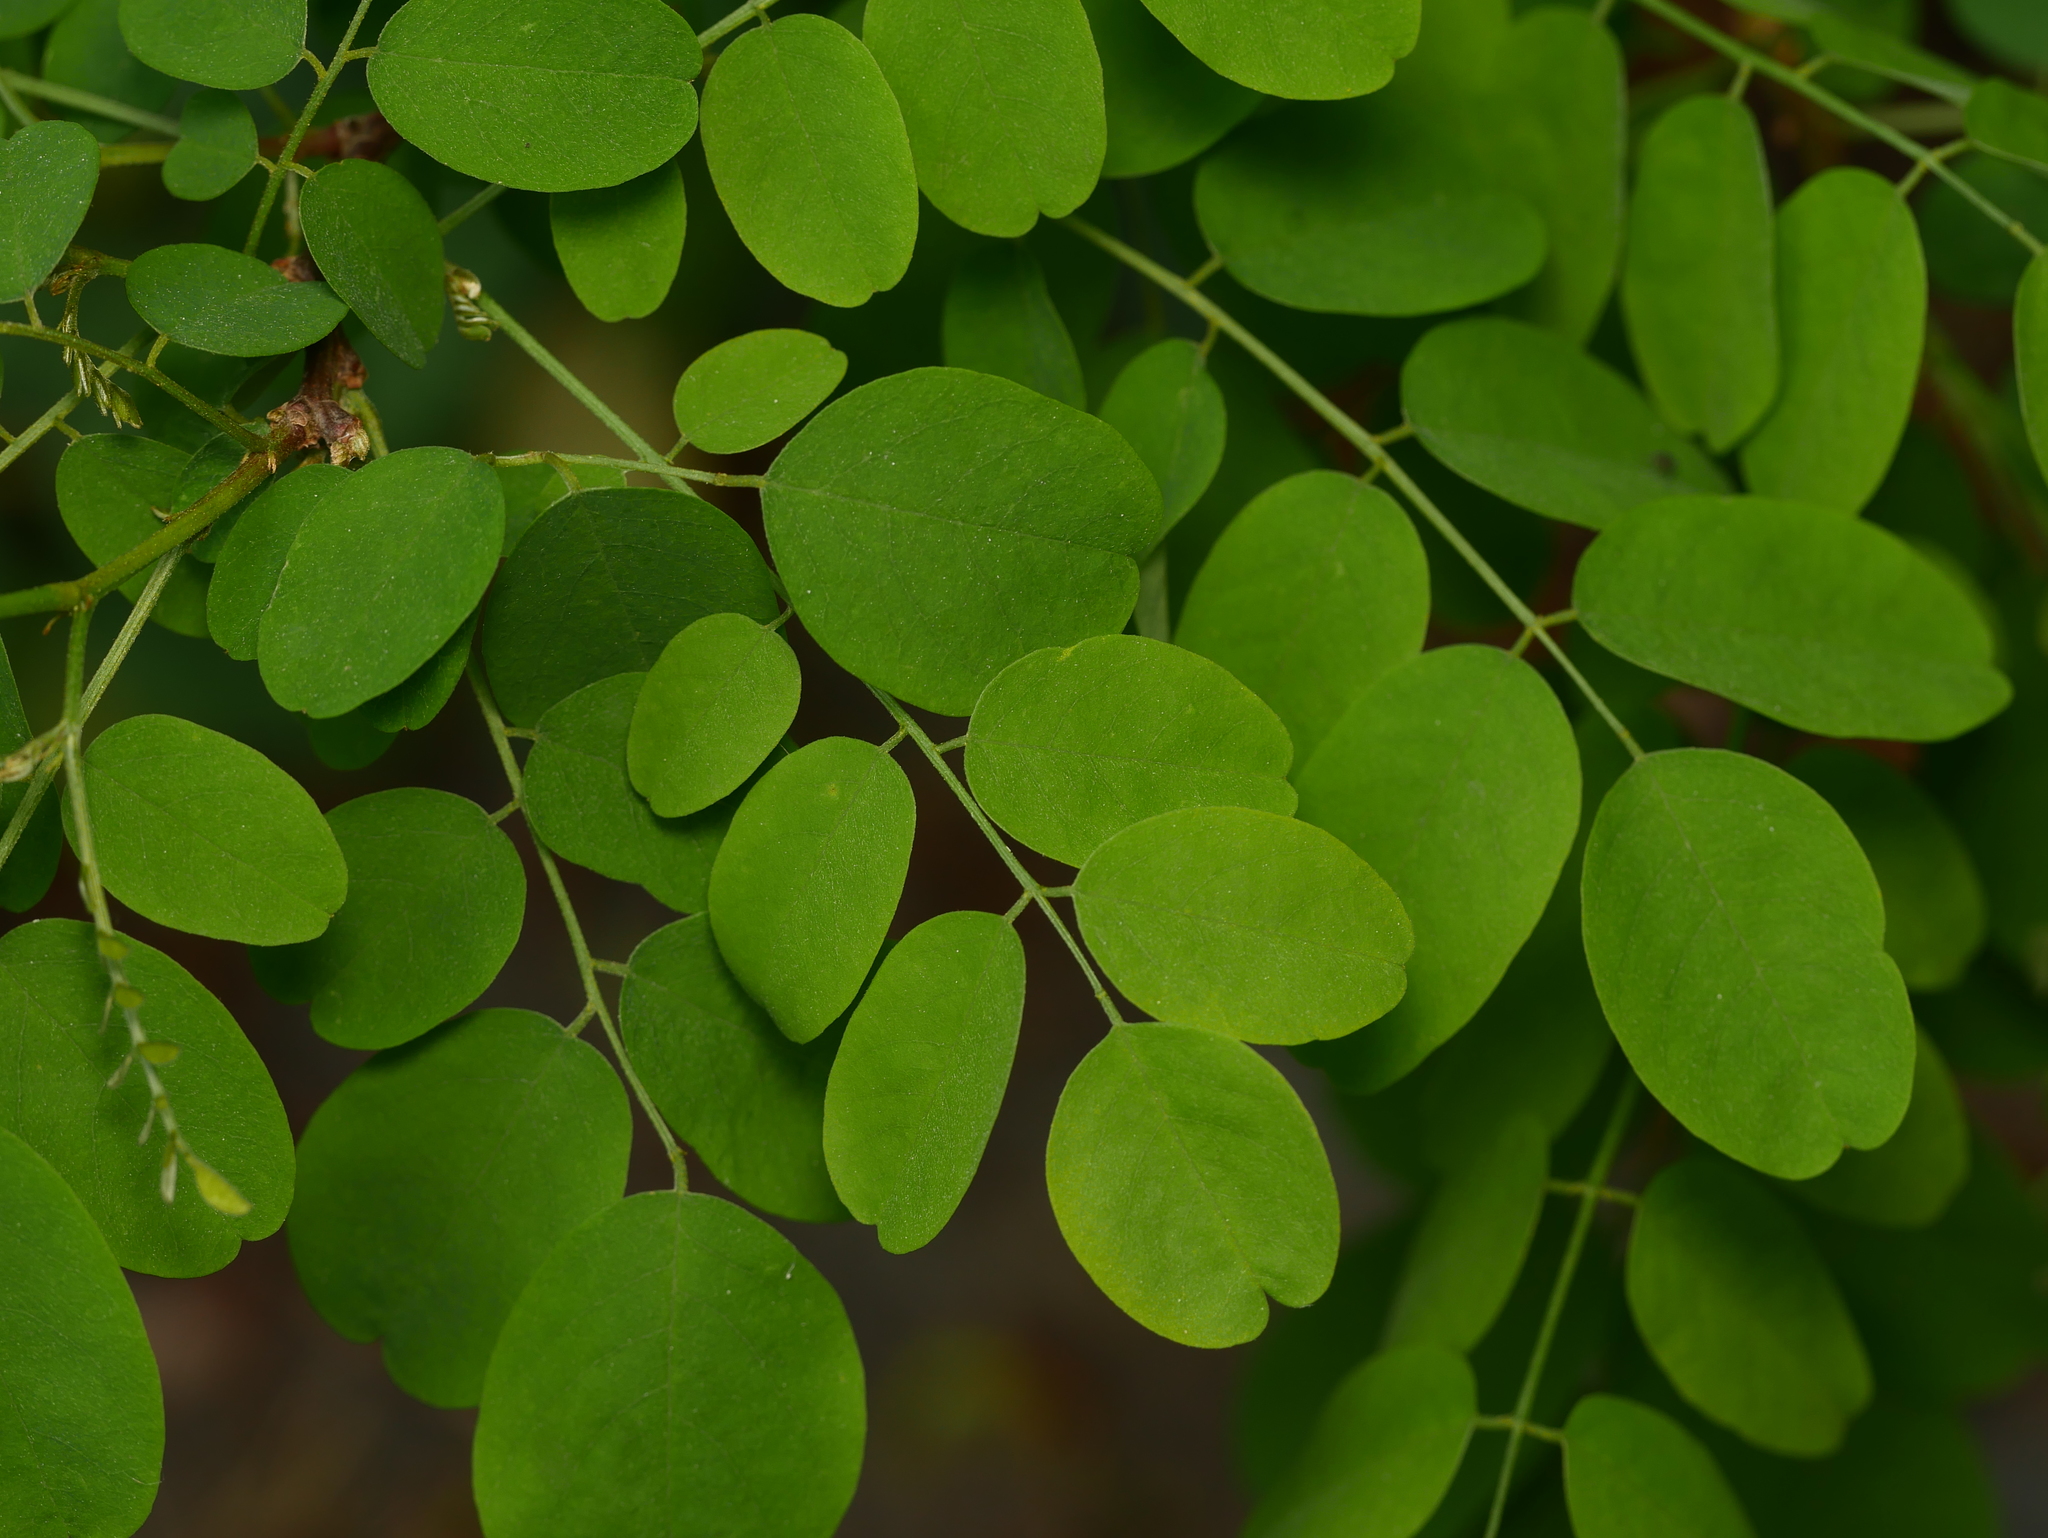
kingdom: Plantae
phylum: Tracheophyta
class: Magnoliopsida
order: Fabales
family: Fabaceae
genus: Robinia
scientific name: Robinia pseudoacacia
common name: Black locust
